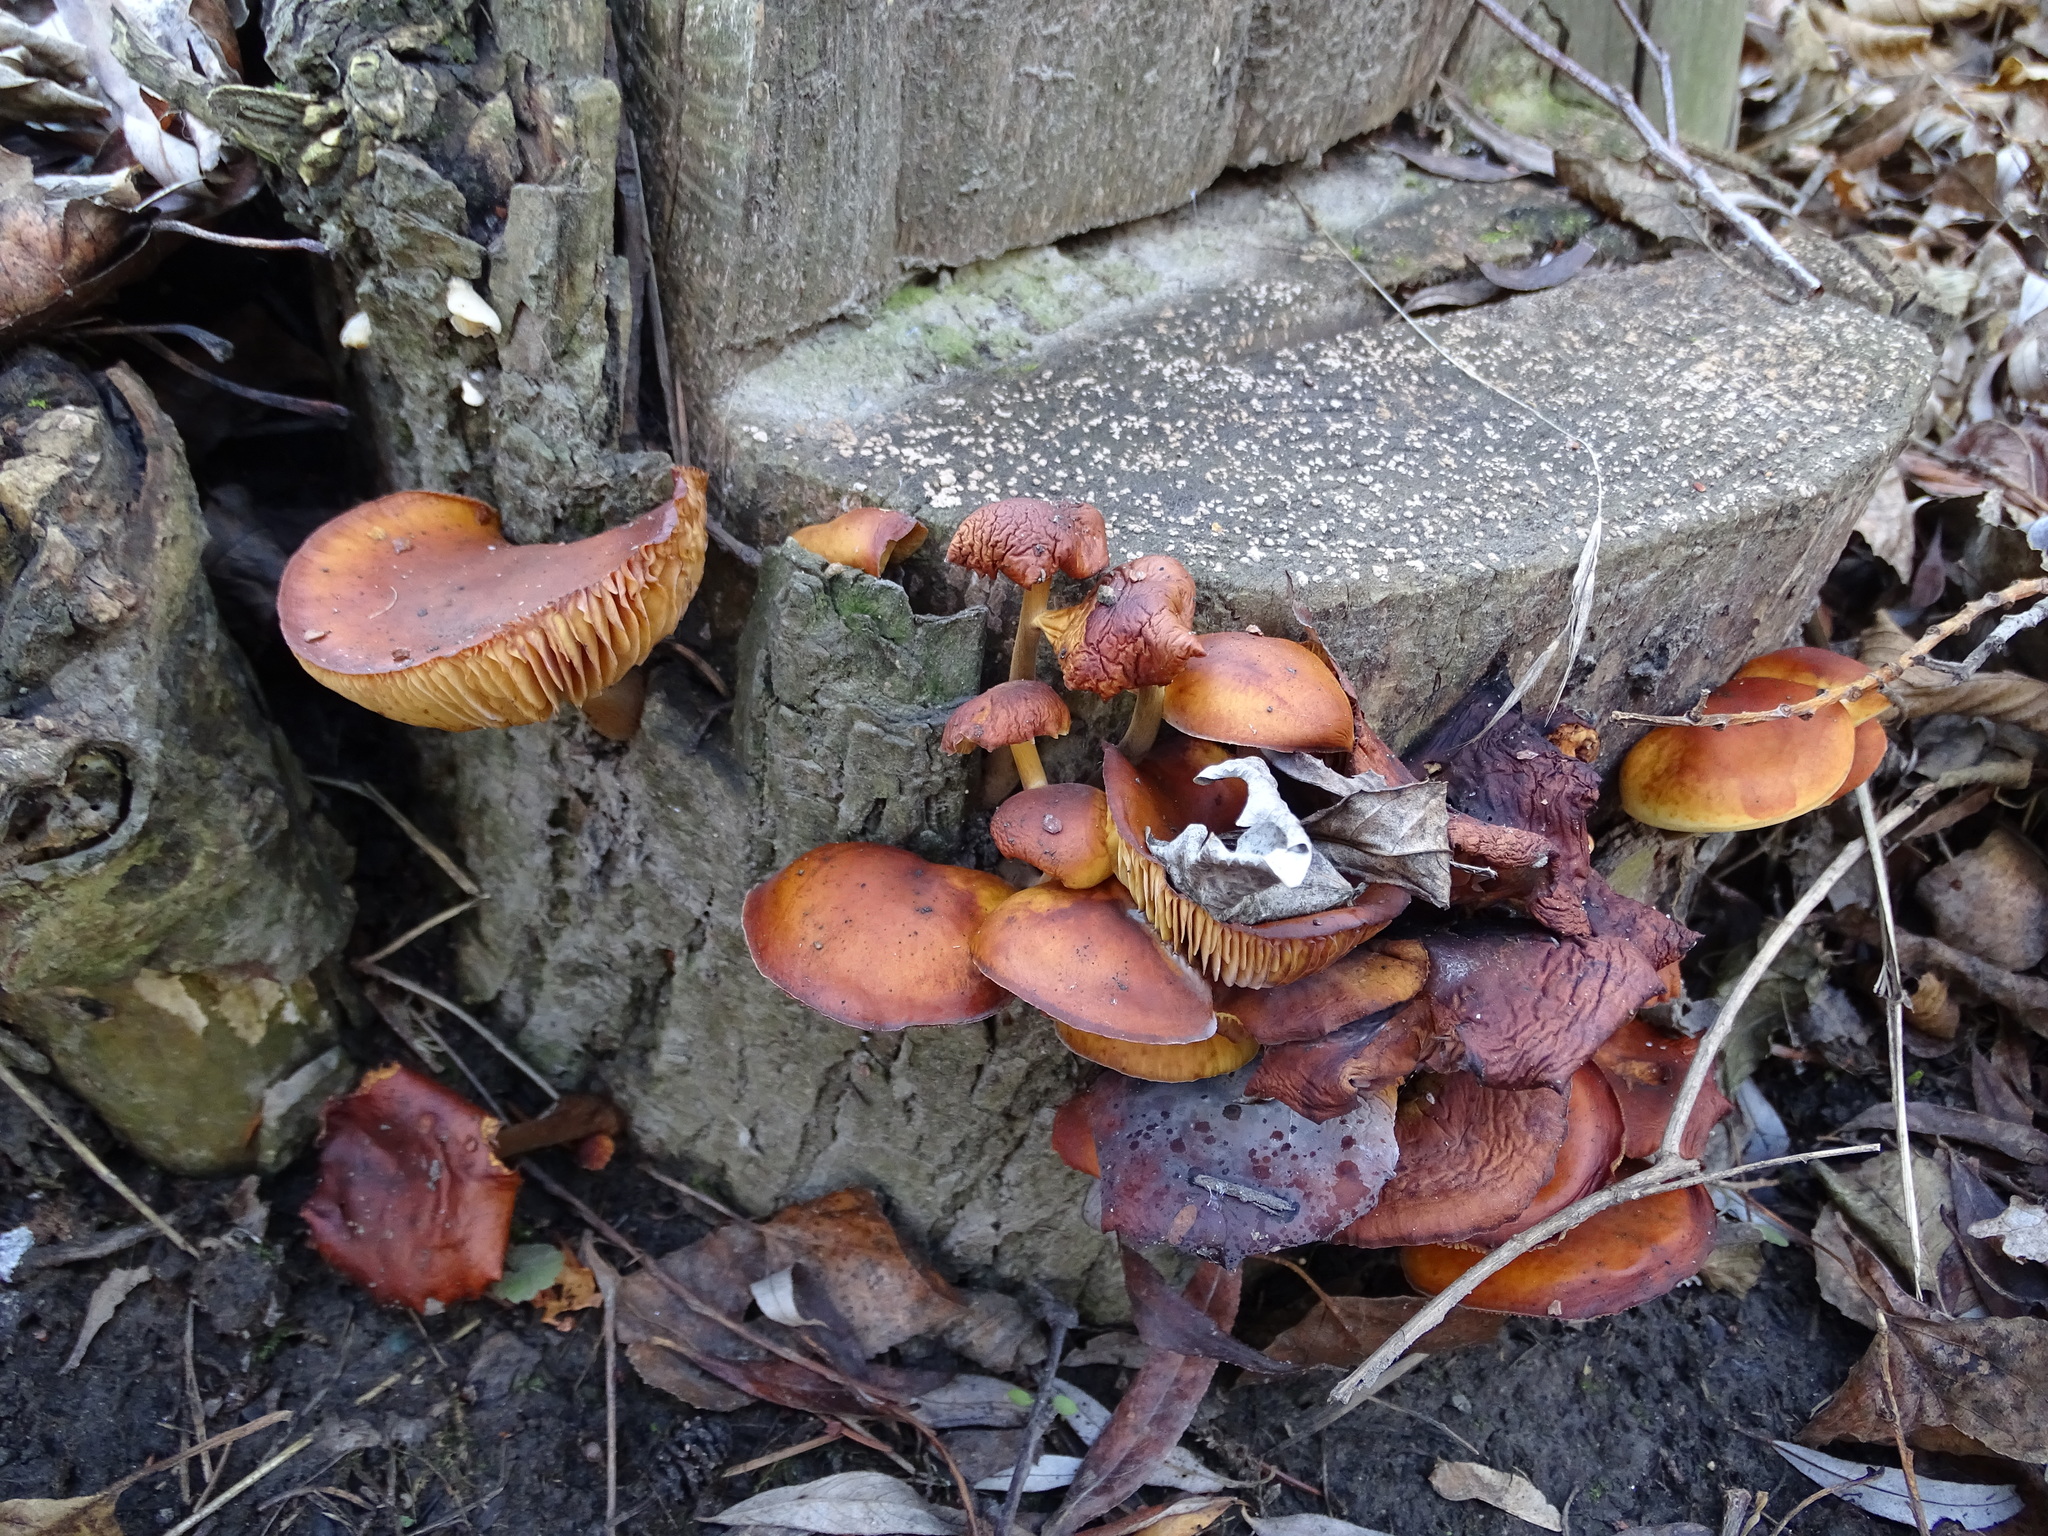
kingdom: Fungi
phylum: Basidiomycota
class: Agaricomycetes
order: Agaricales
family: Physalacriaceae
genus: Flammulina
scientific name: Flammulina
